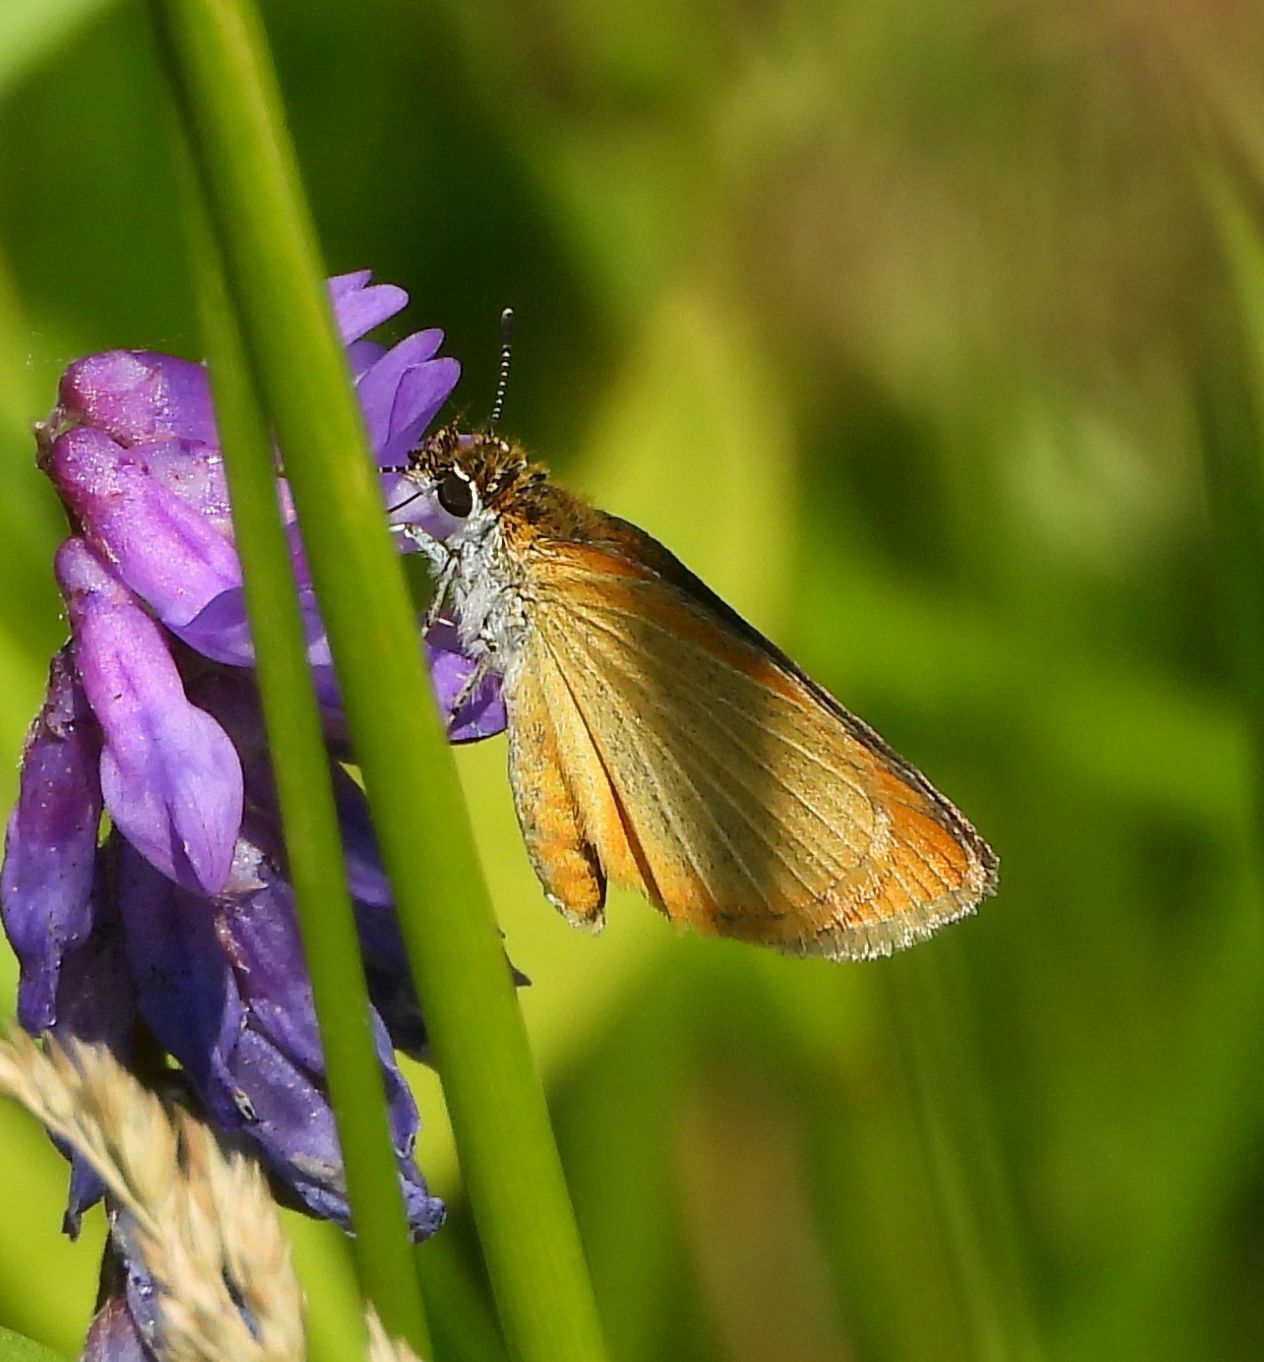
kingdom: Animalia
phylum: Arthropoda
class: Insecta
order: Lepidoptera
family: Hesperiidae
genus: Ancyloxypha
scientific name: Ancyloxypha numitor
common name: Least skipper
